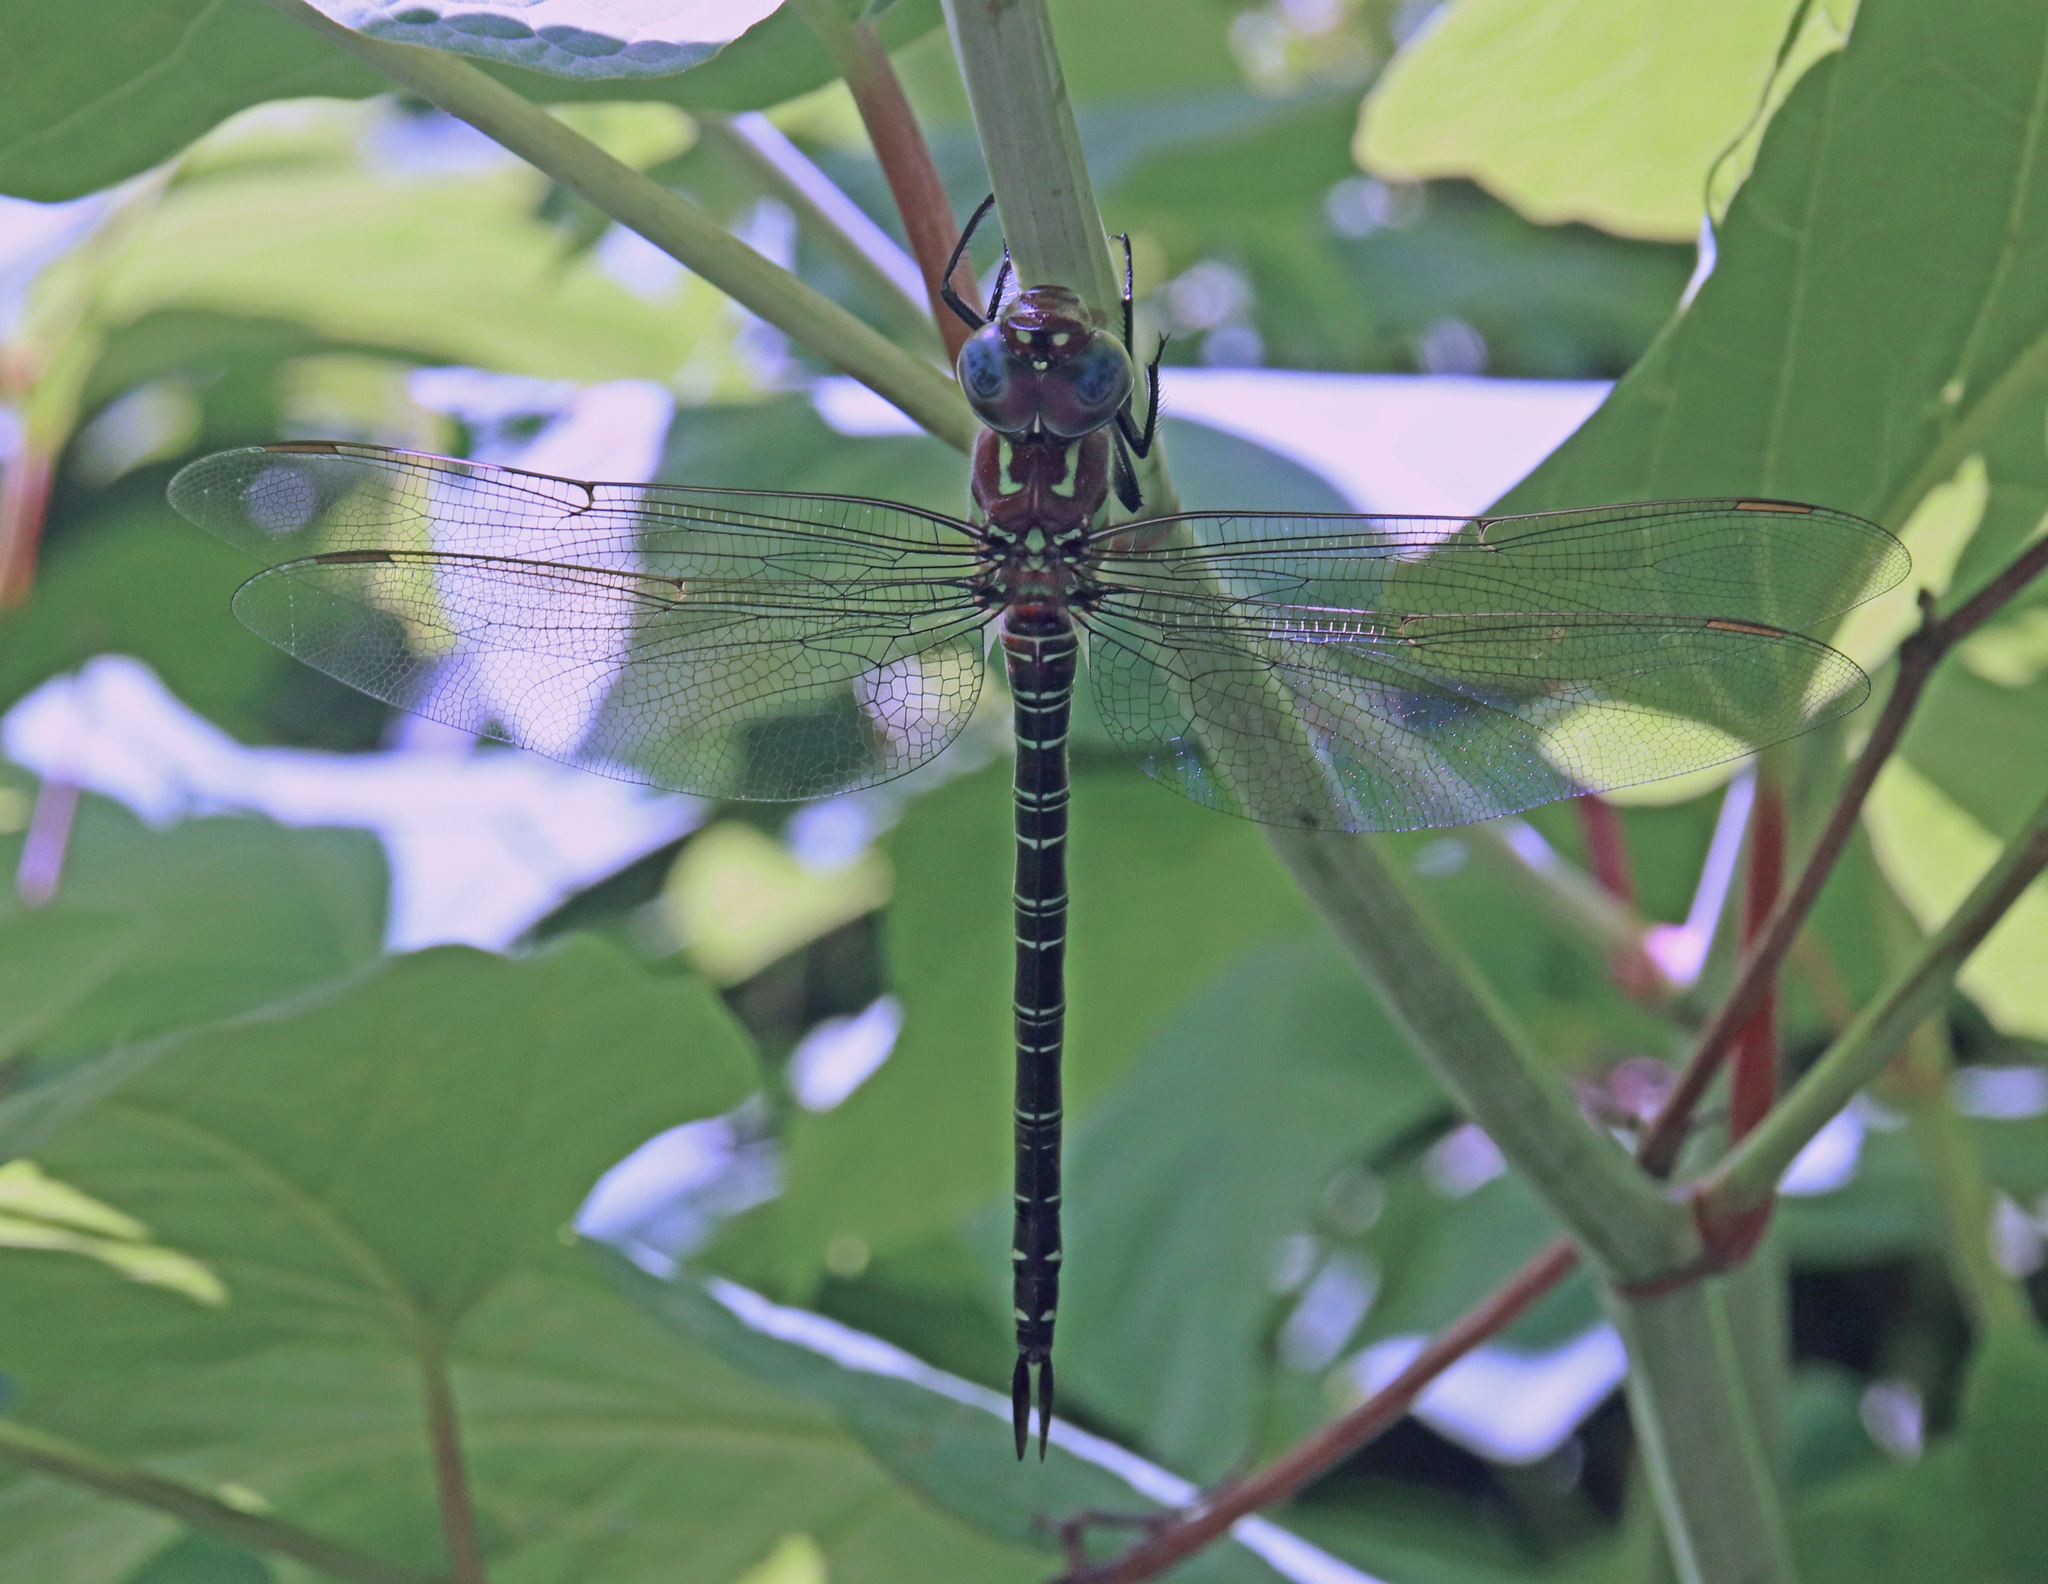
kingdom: Animalia
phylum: Arthropoda
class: Insecta
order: Odonata
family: Aeshnidae
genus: Epiaeschna
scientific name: Epiaeschna heros
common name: Swamp darner
